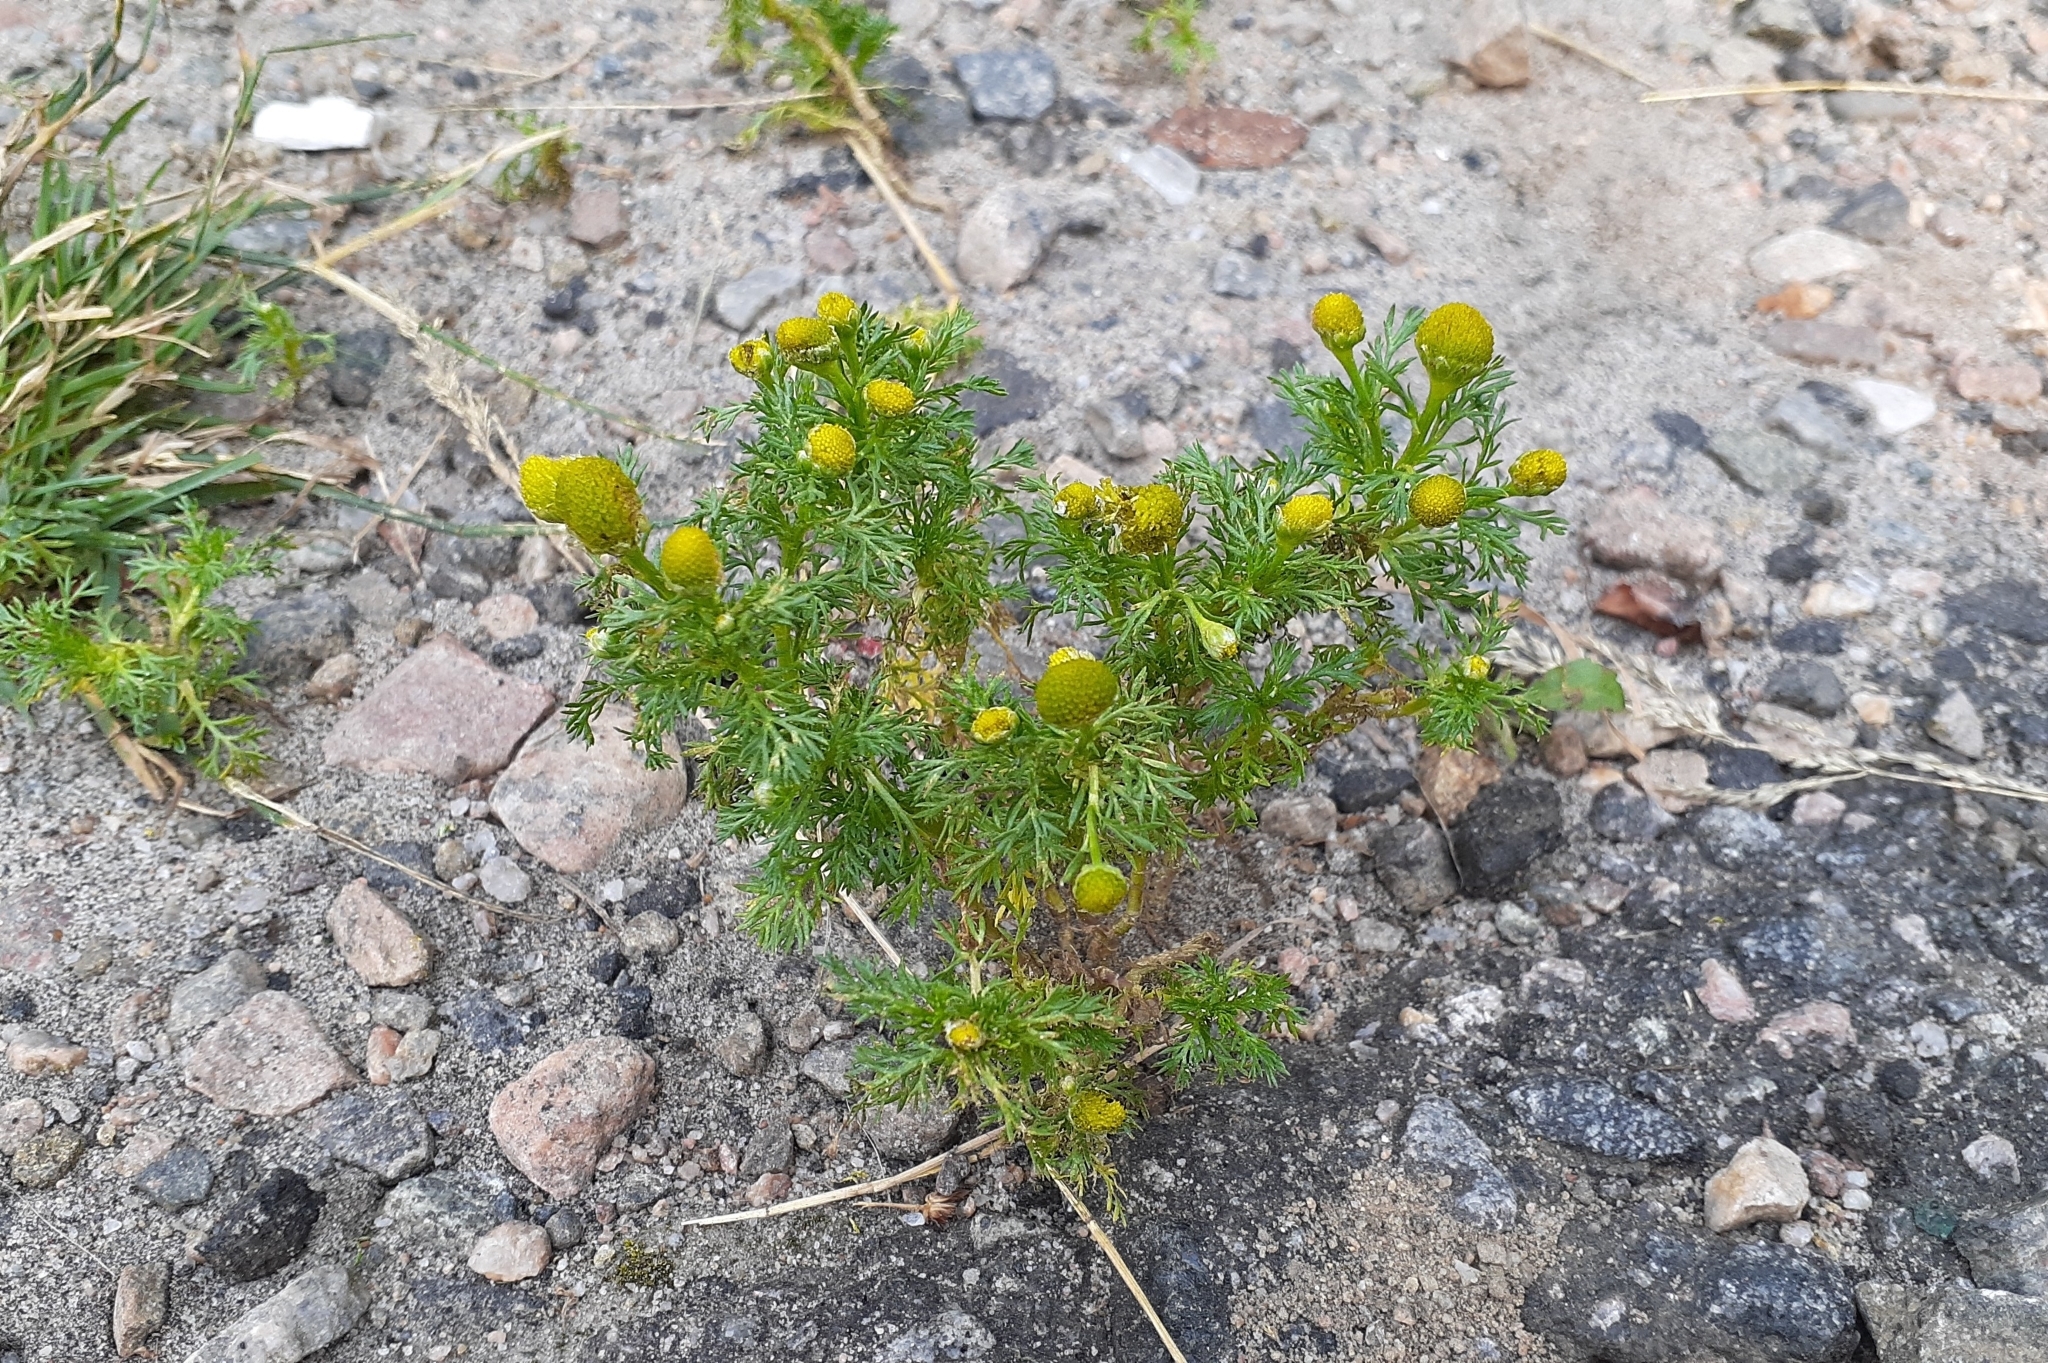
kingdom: Plantae
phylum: Tracheophyta
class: Magnoliopsida
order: Asterales
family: Asteraceae
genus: Matricaria
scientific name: Matricaria discoidea
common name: Disc mayweed
